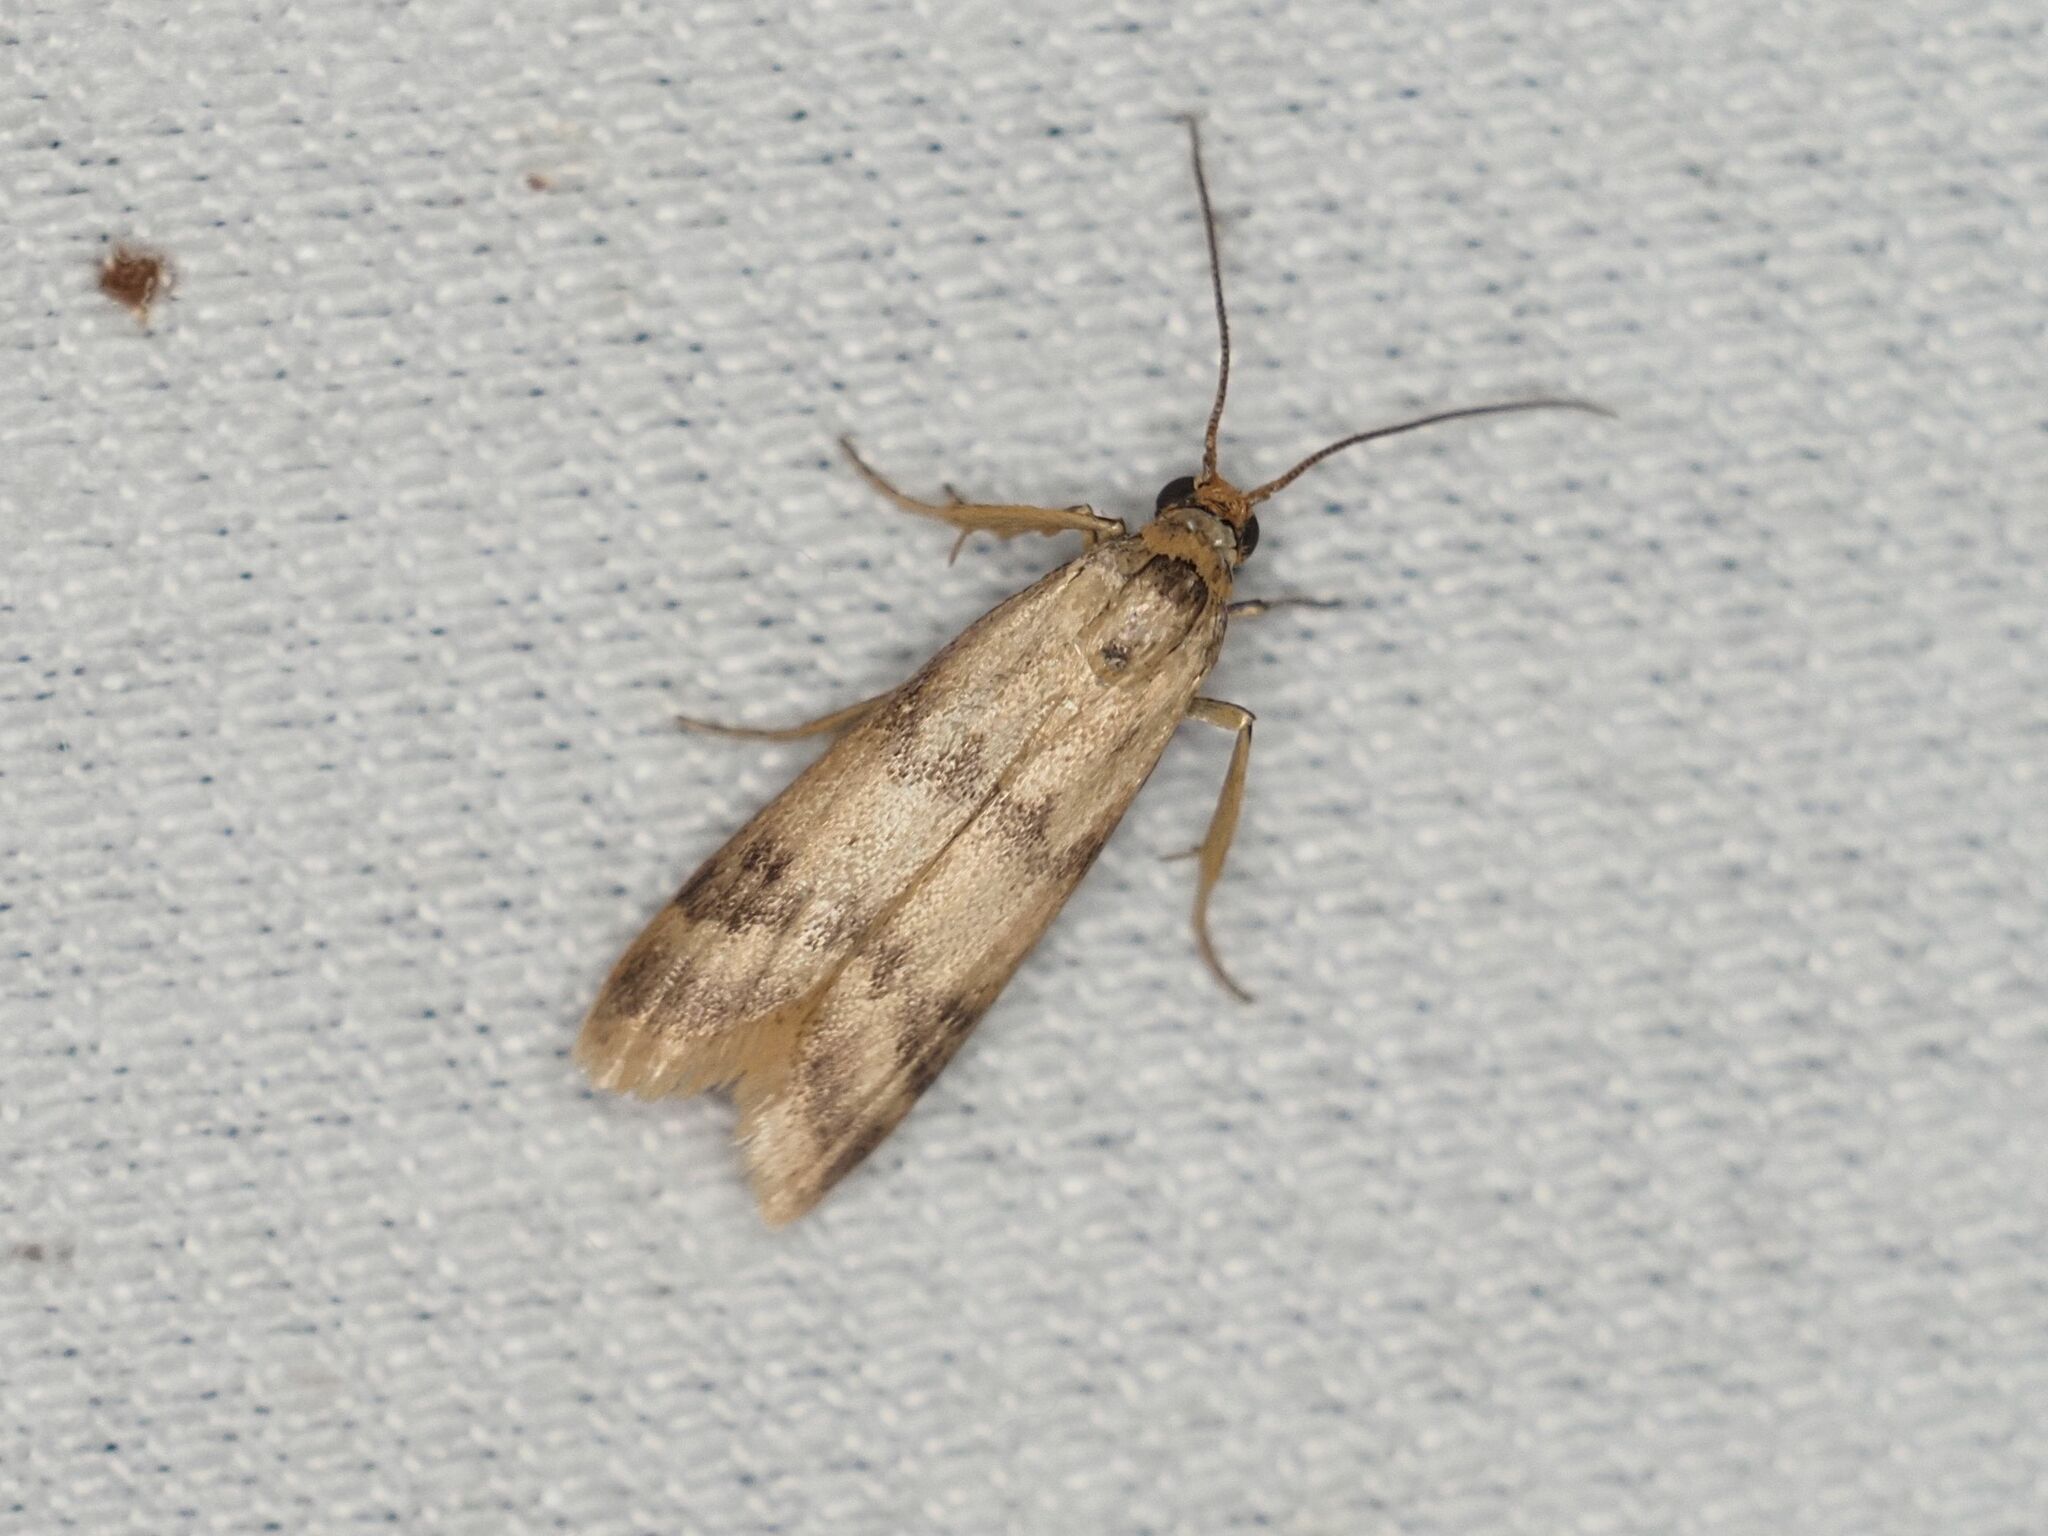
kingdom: Animalia
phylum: Arthropoda
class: Insecta
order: Lepidoptera
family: Pyralidae
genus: Homoeosoma
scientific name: Homoeosoma sinuella
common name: Twin-barred knot-horn
